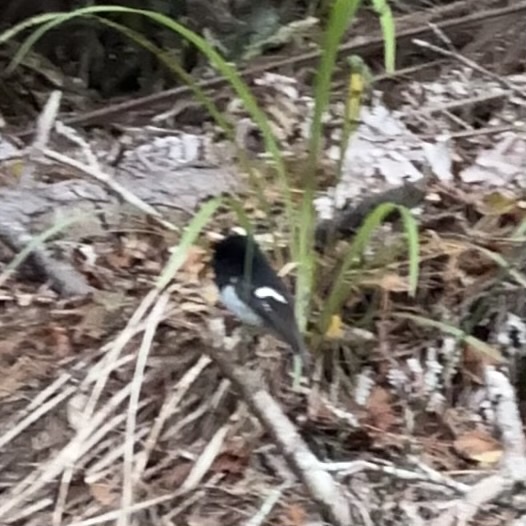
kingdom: Animalia
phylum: Chordata
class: Aves
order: Passeriformes
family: Petroicidae
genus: Petroica
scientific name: Petroica macrocephala
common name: Tomtit
